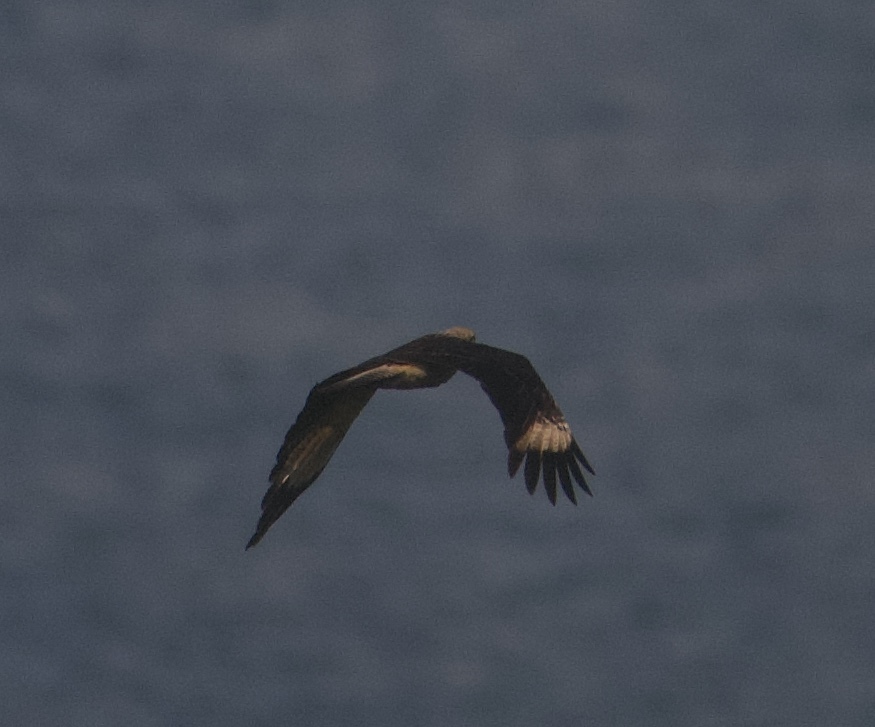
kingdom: Animalia
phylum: Chordata
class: Aves
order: Falconiformes
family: Falconidae
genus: Daptrius
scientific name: Daptrius
